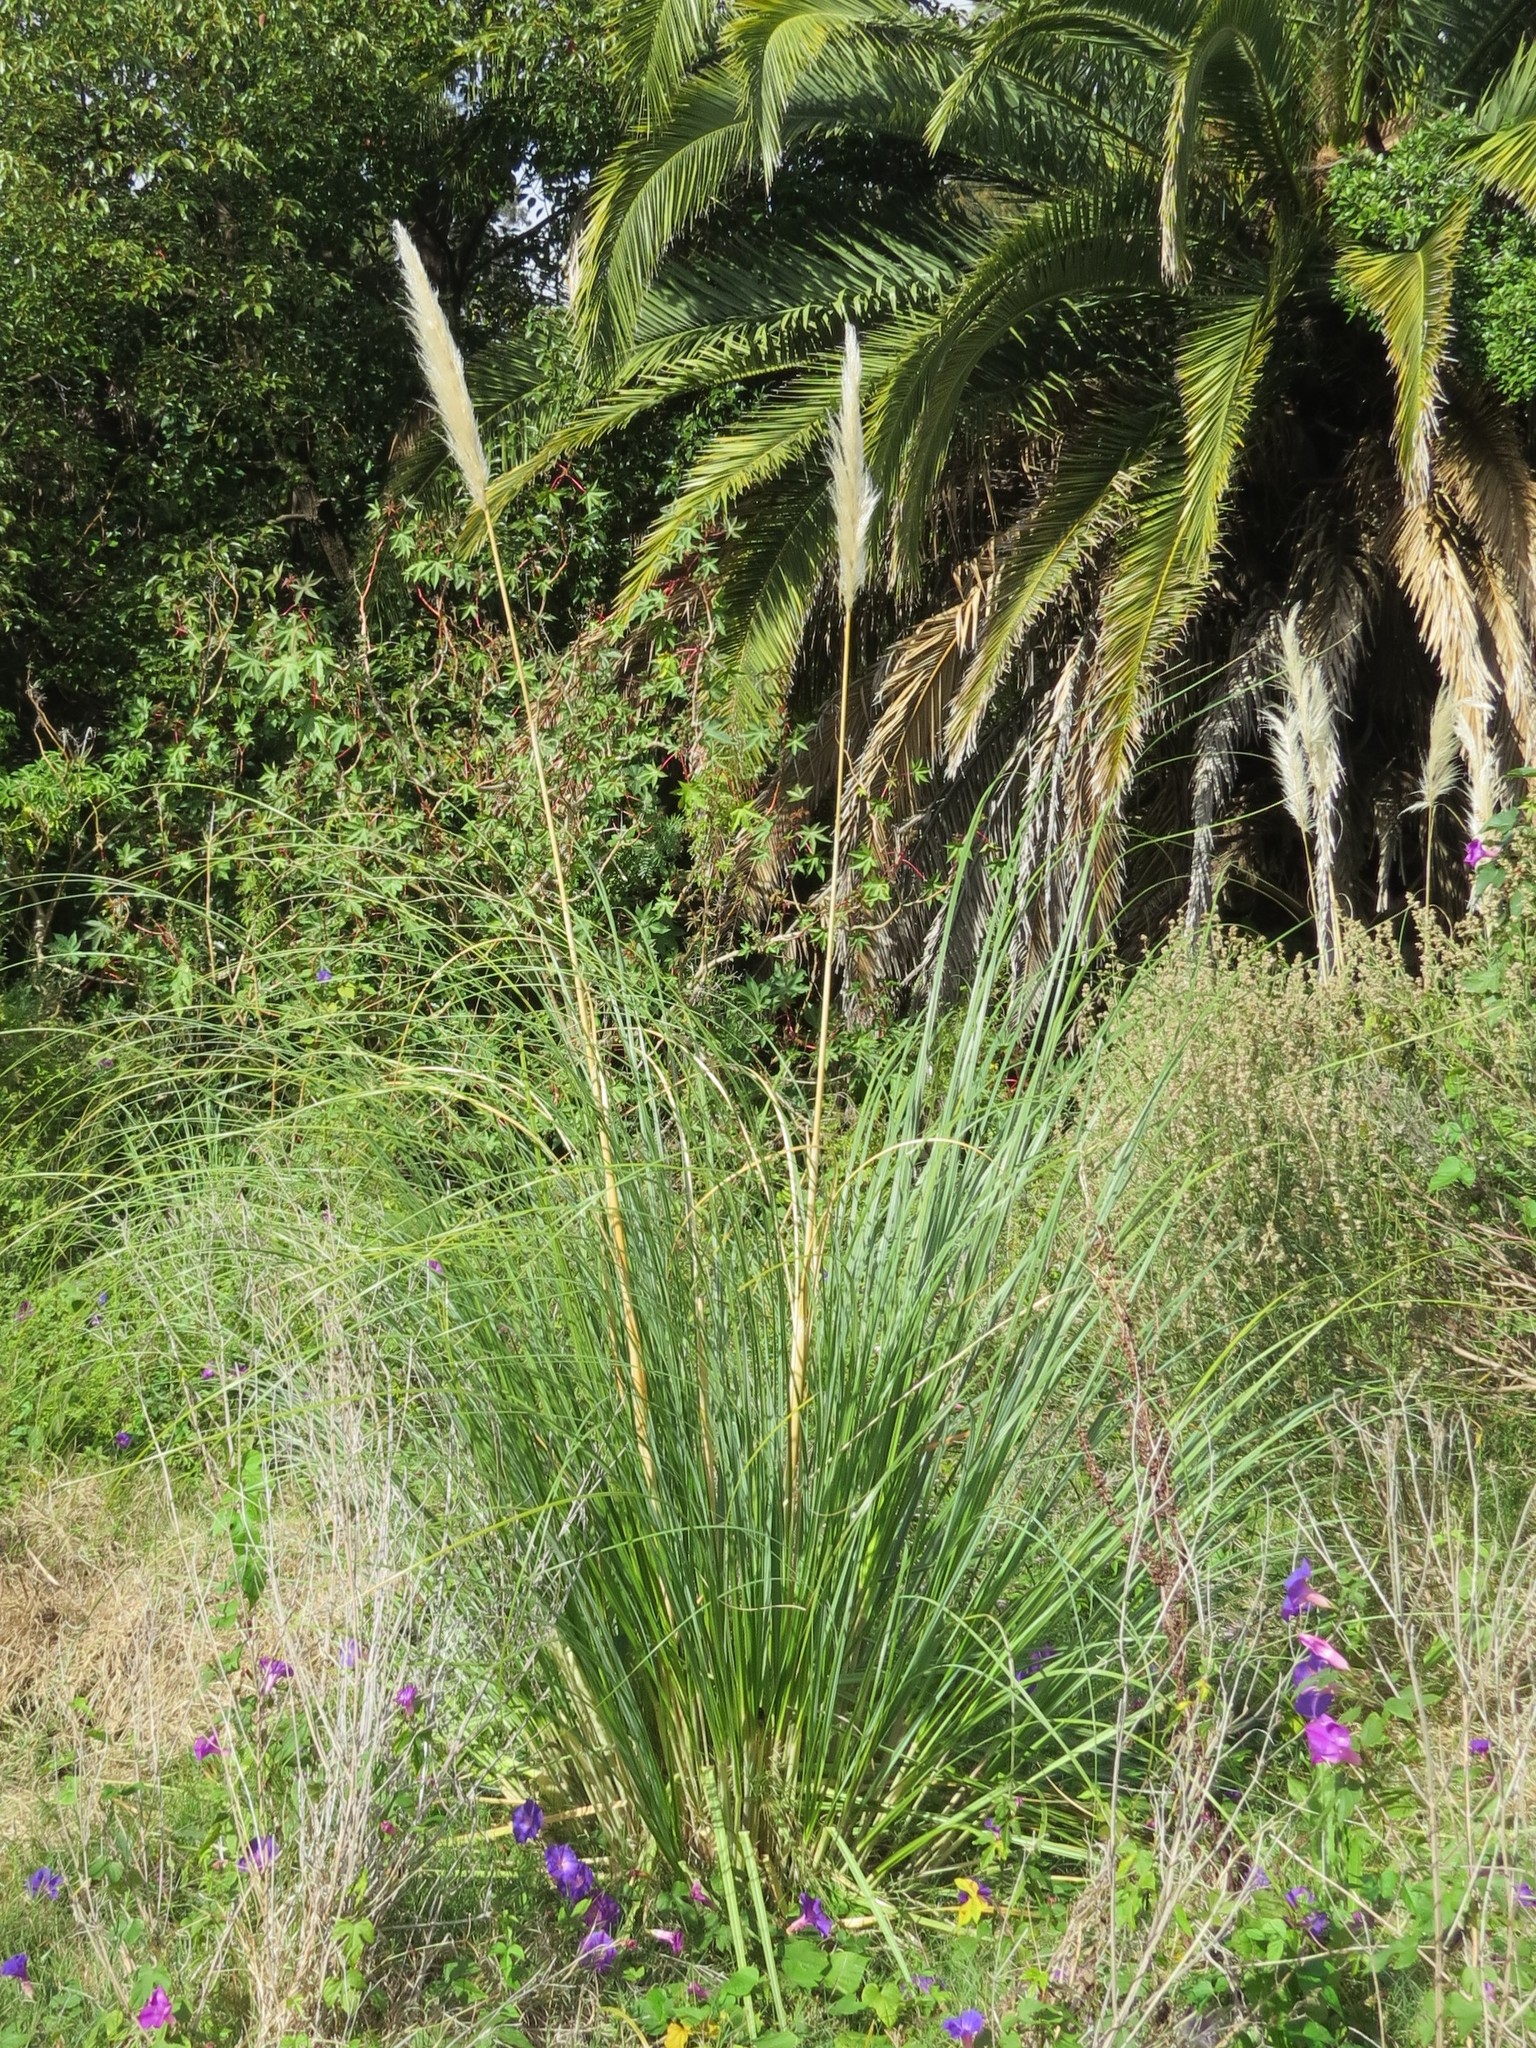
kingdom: Plantae
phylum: Tracheophyta
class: Liliopsida
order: Poales
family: Poaceae
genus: Cortaderia
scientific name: Cortaderia selloana
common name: Uruguayan pampas grass
